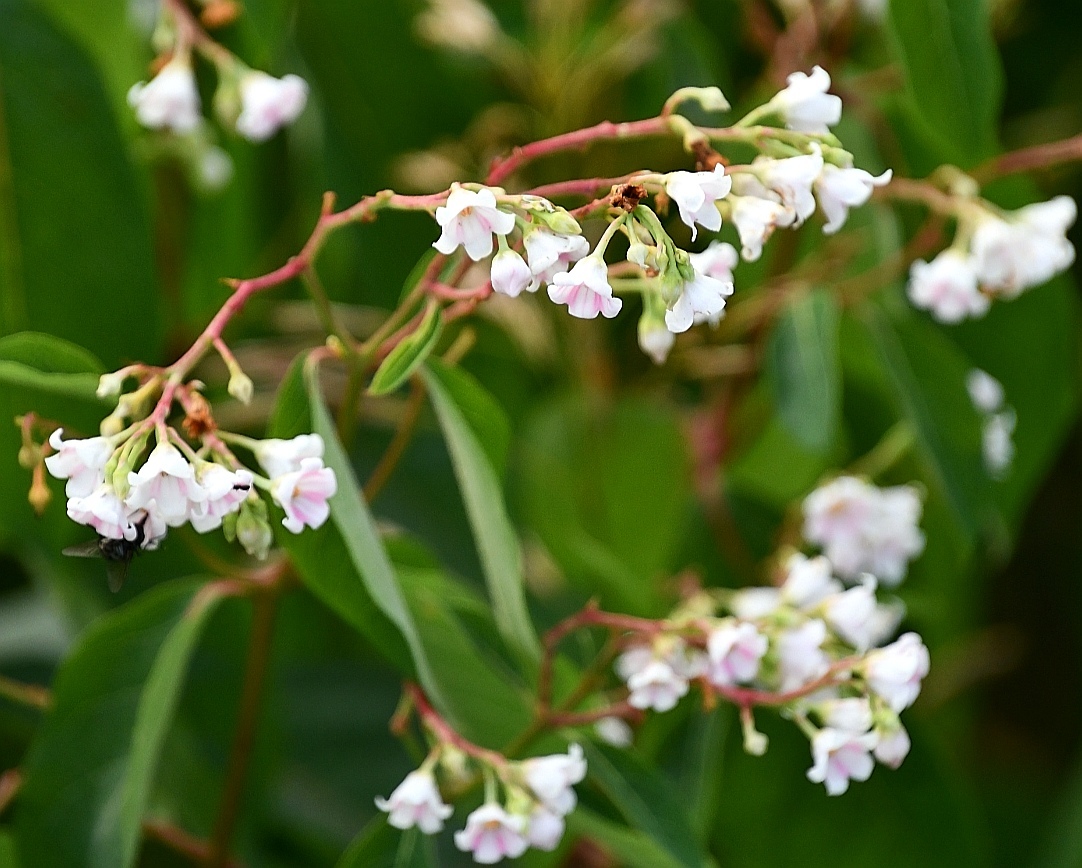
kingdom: Plantae
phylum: Tracheophyta
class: Magnoliopsida
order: Gentianales
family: Apocynaceae
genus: Apocynum
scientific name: Apocynum androsaemifolium
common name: Spreading dogbane
